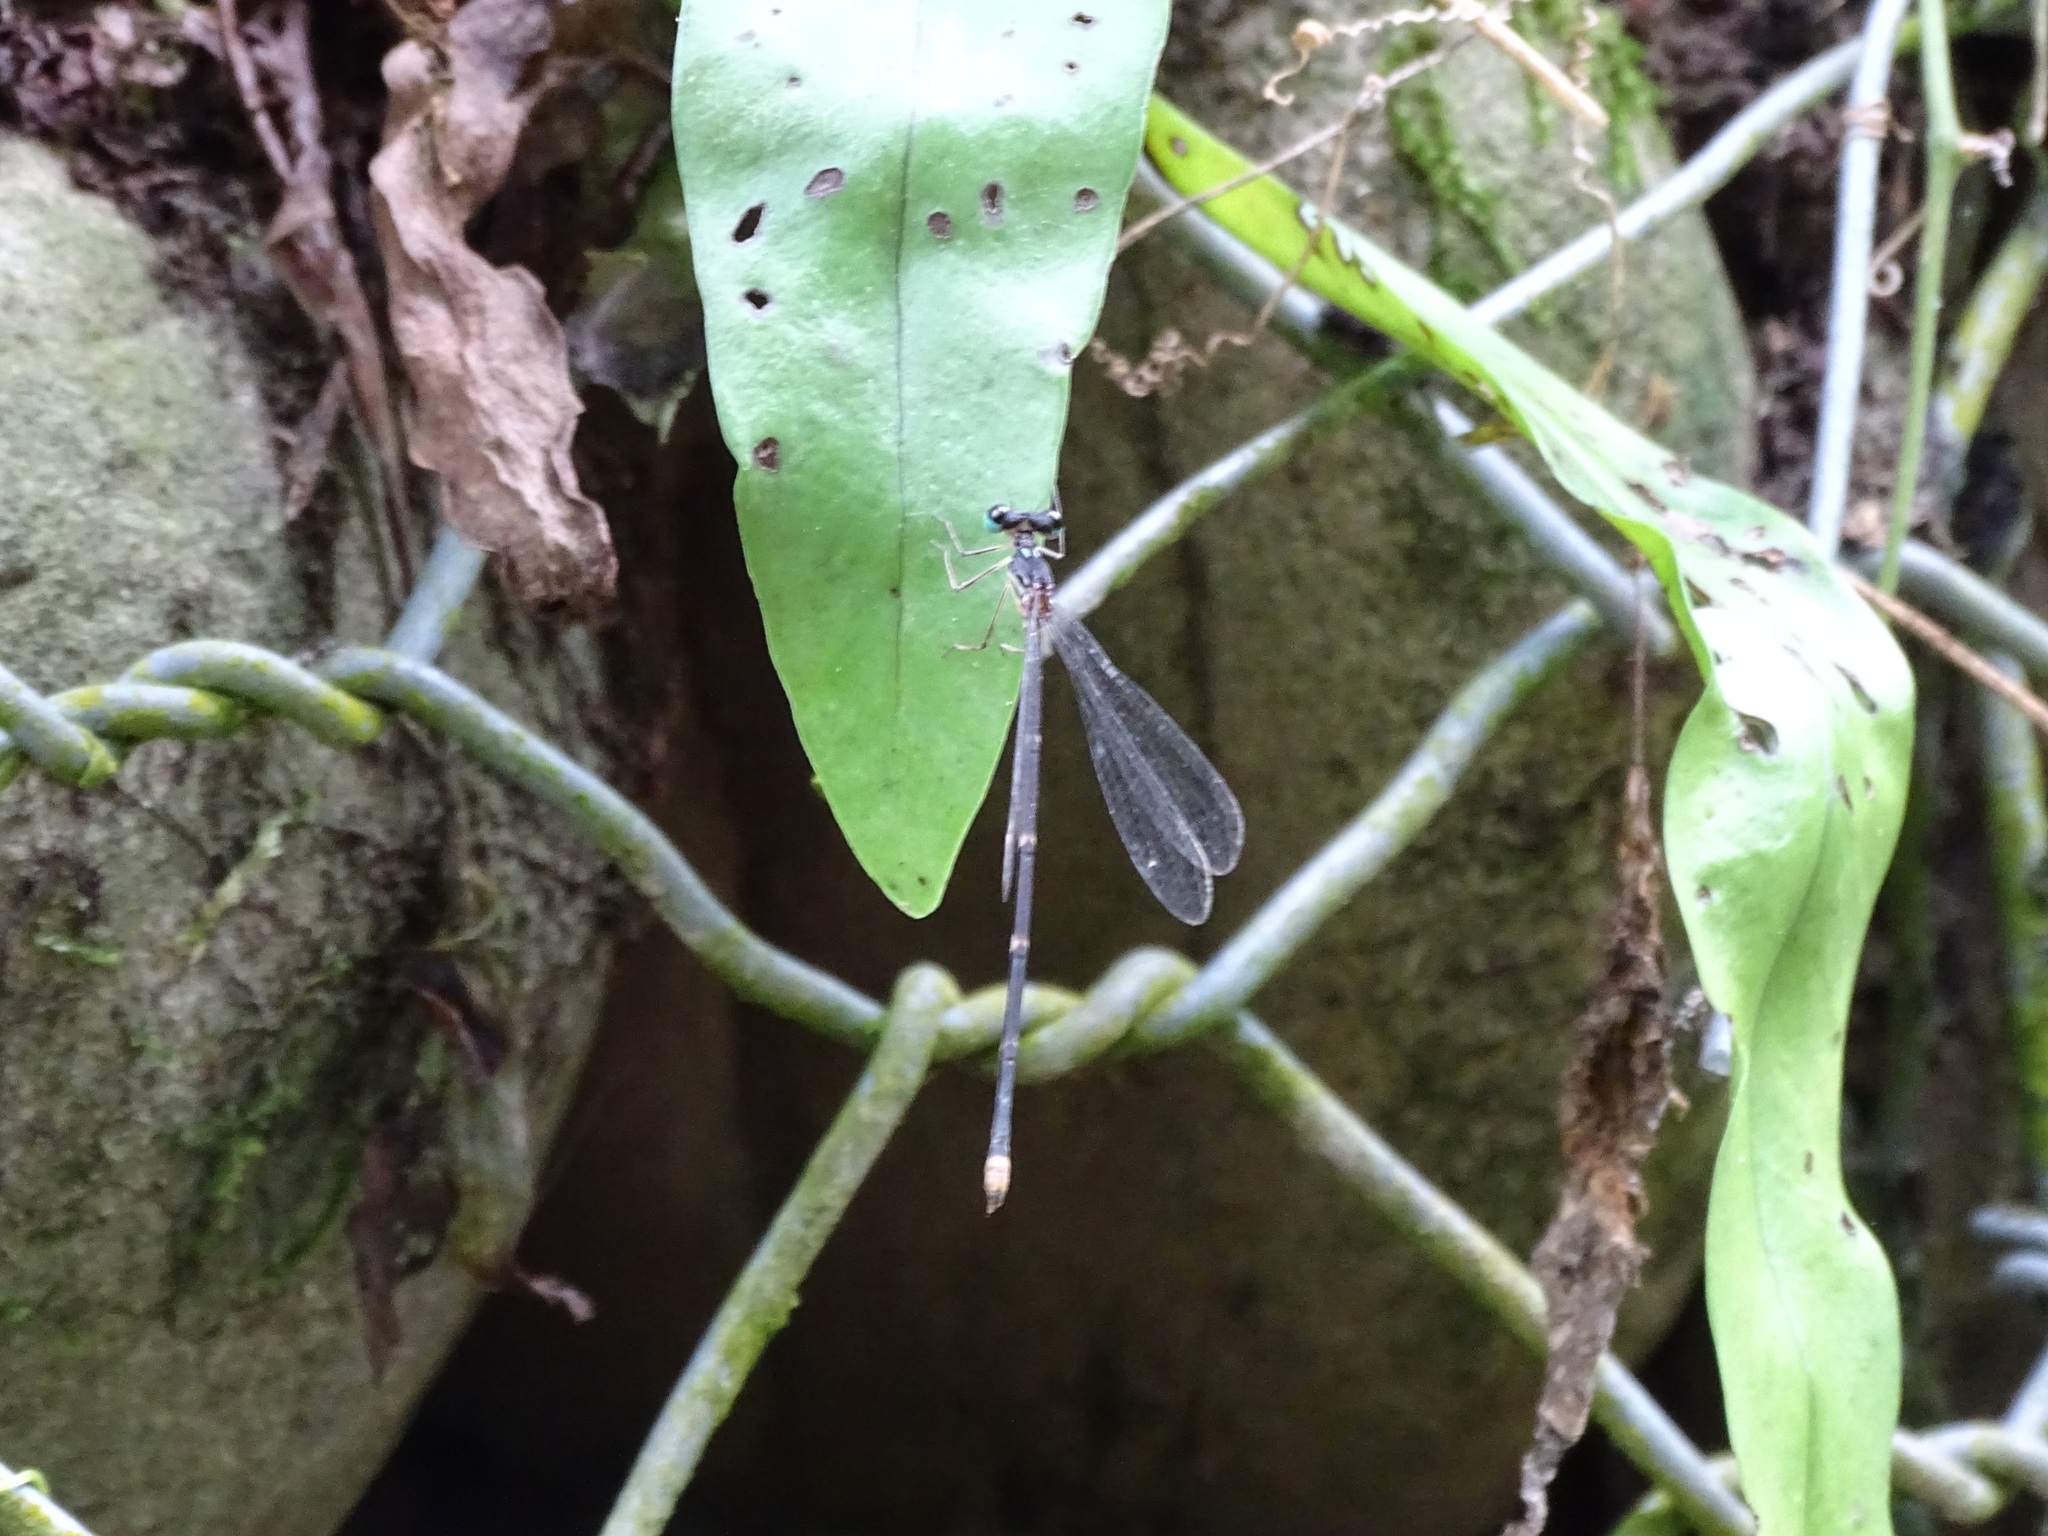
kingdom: Animalia
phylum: Arthropoda
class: Insecta
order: Odonata
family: Platycnemididae
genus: Coeliccia
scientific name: Coeliccia flavicauda
